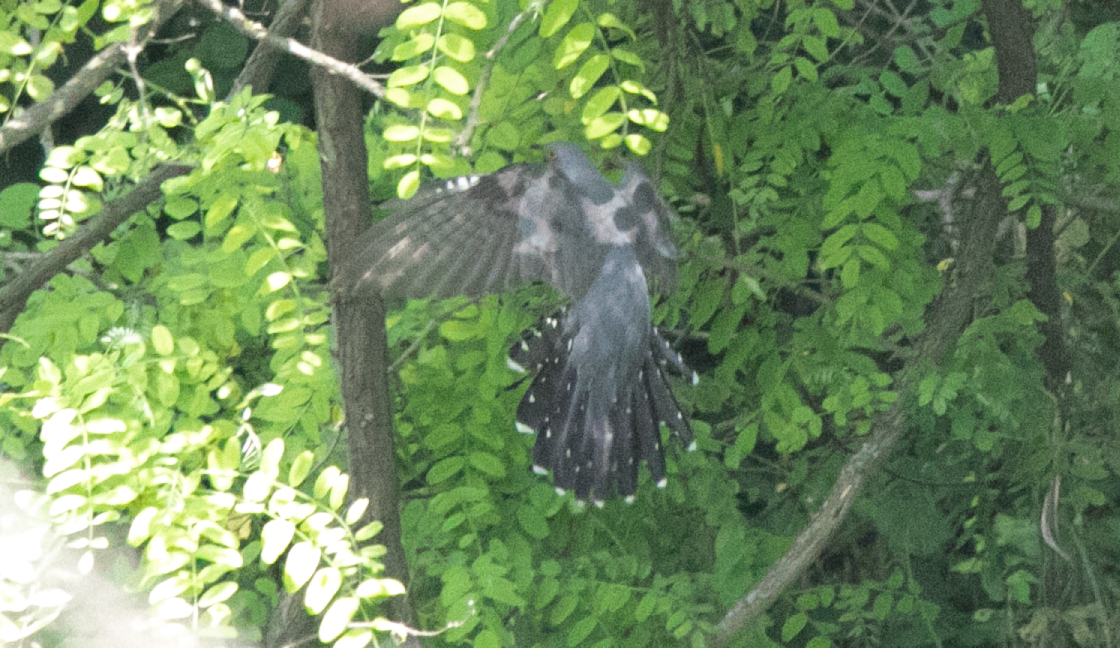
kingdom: Animalia
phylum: Chordata
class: Aves
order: Cuculiformes
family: Cuculidae
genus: Cuculus
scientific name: Cuculus canorus
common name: Common cuckoo
